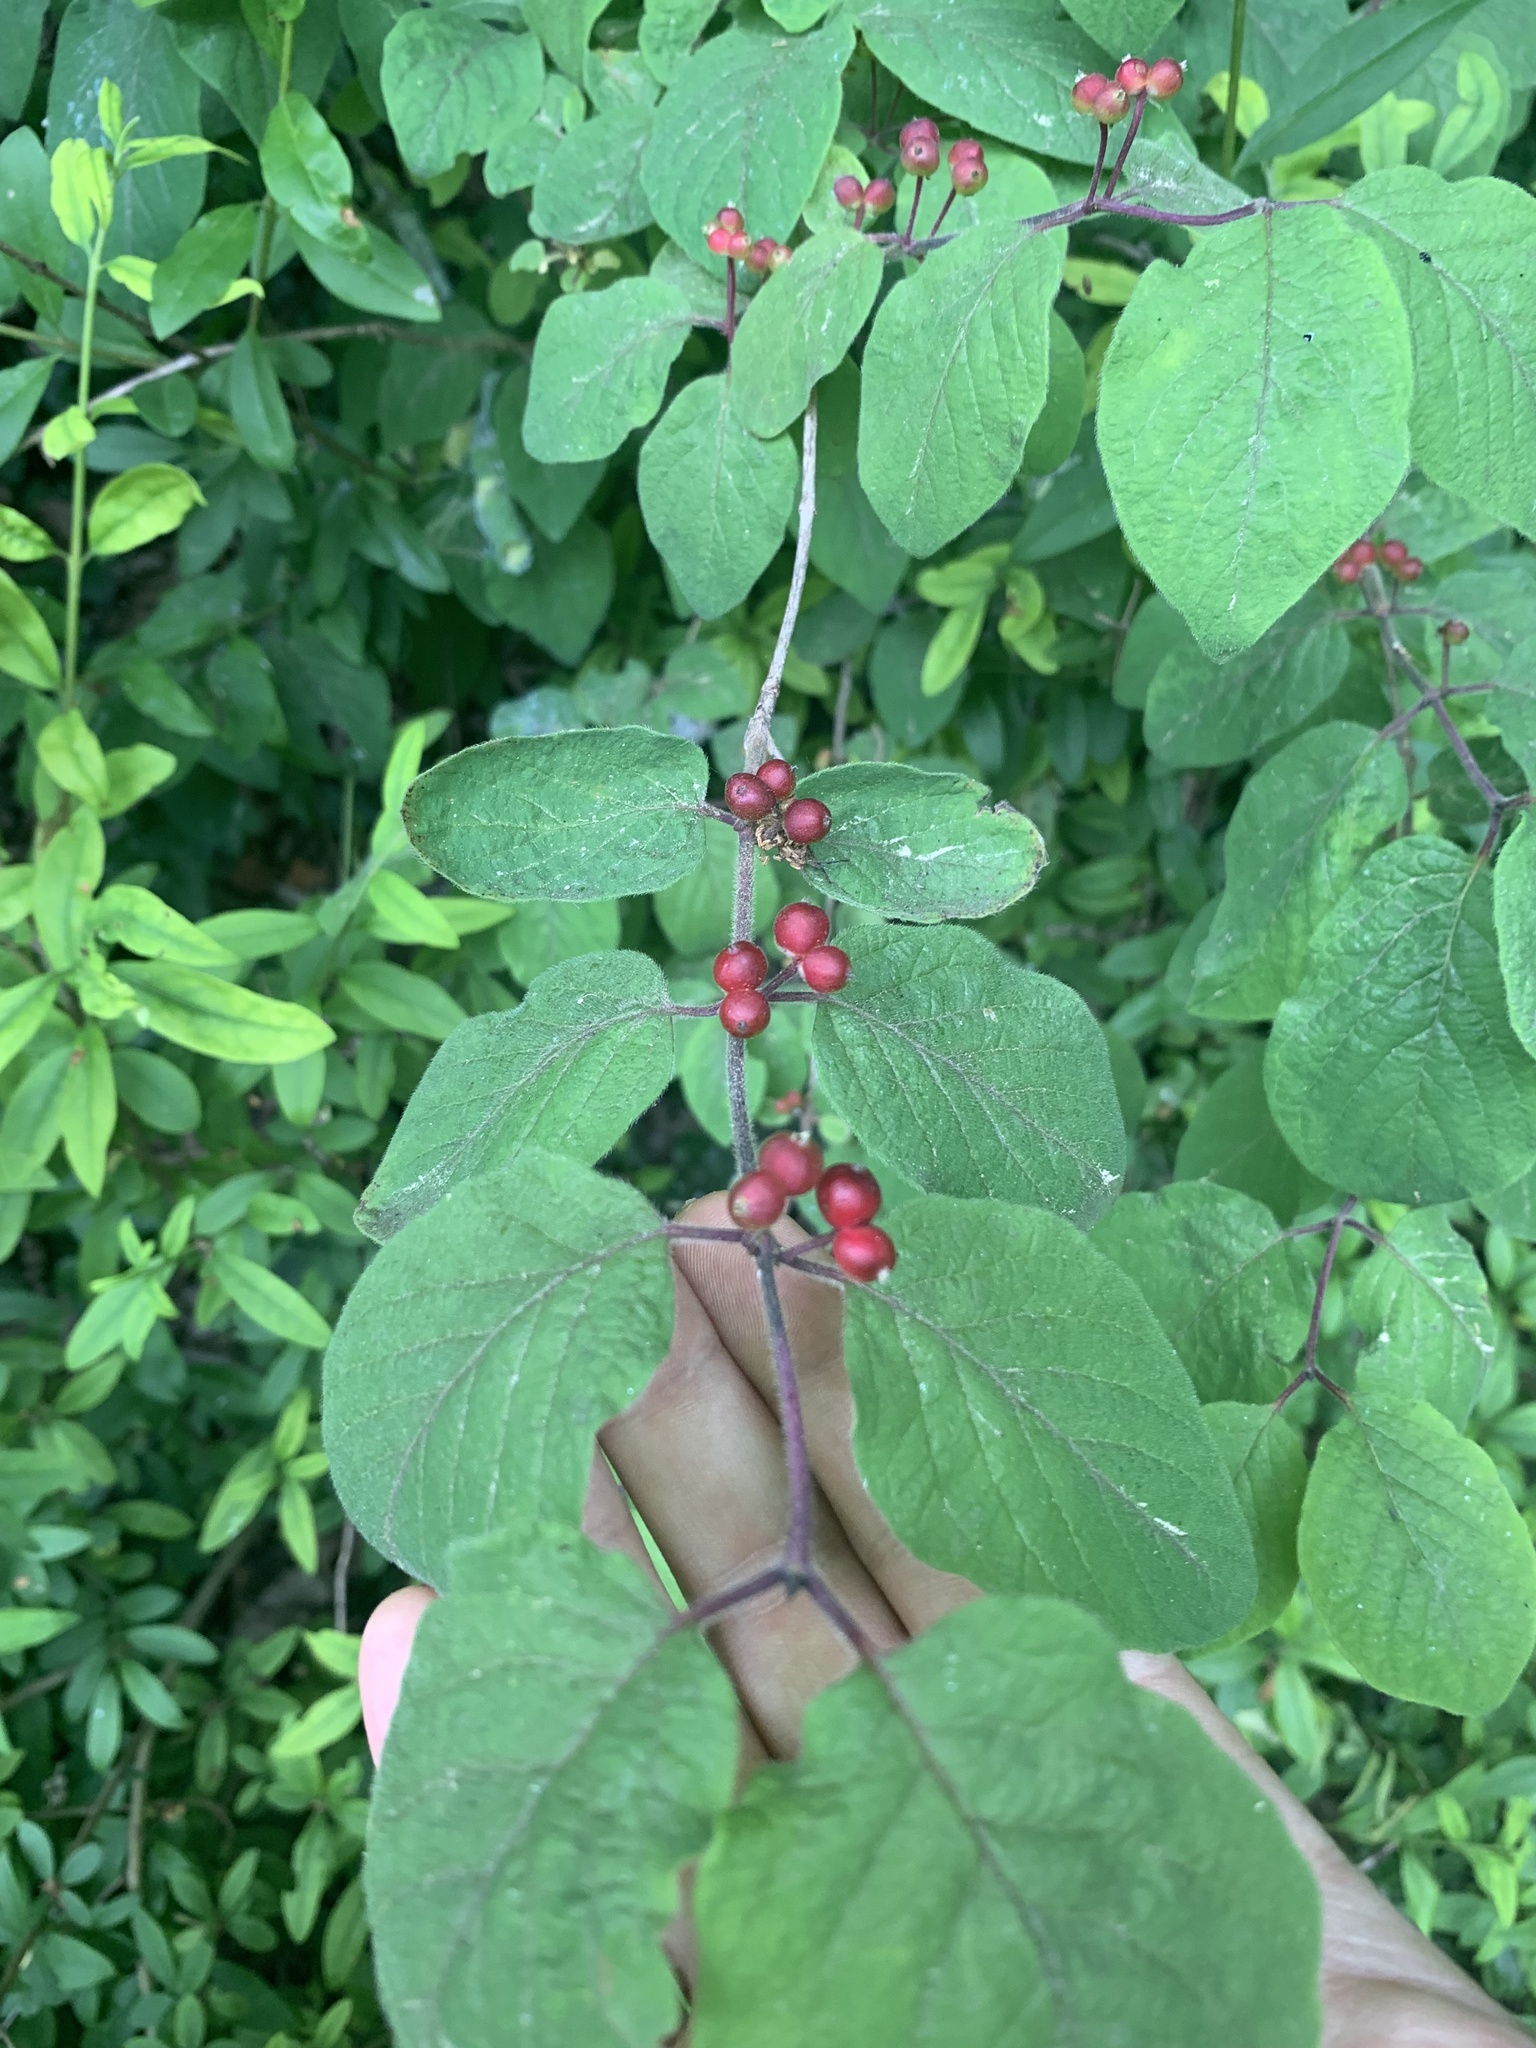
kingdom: Plantae
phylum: Tracheophyta
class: Magnoliopsida
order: Dipsacales
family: Caprifoliaceae
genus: Lonicera
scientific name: Lonicera xylosteum
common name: Fly honeysuckle
